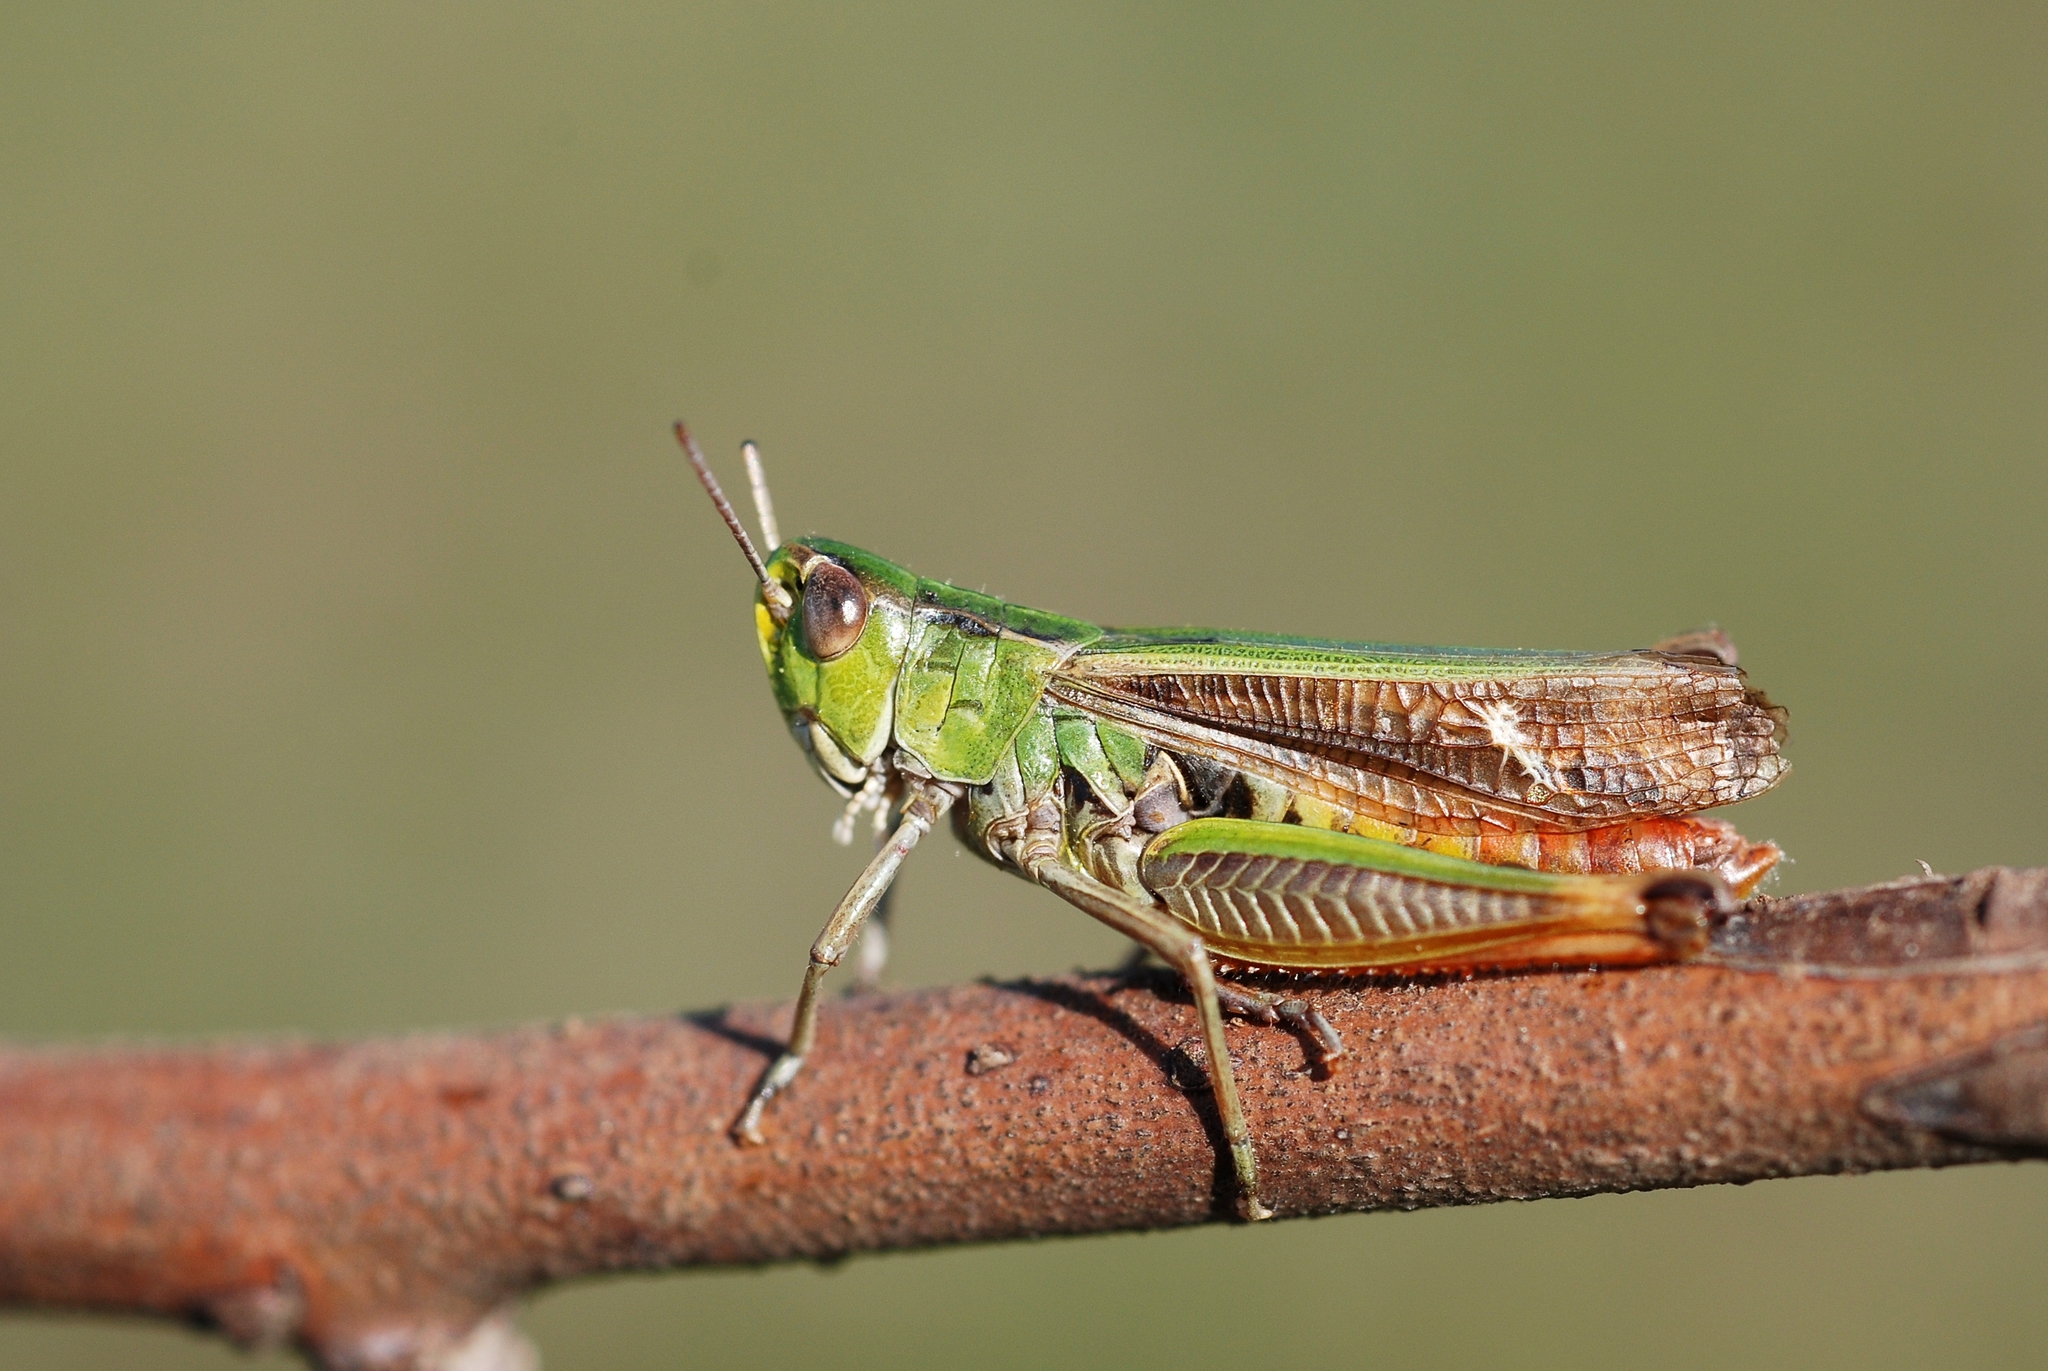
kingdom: Animalia
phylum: Arthropoda
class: Insecta
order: Orthoptera
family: Acrididae
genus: Stenobothrus
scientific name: Stenobothrus lineatus
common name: Stripe-winged grasshopper
